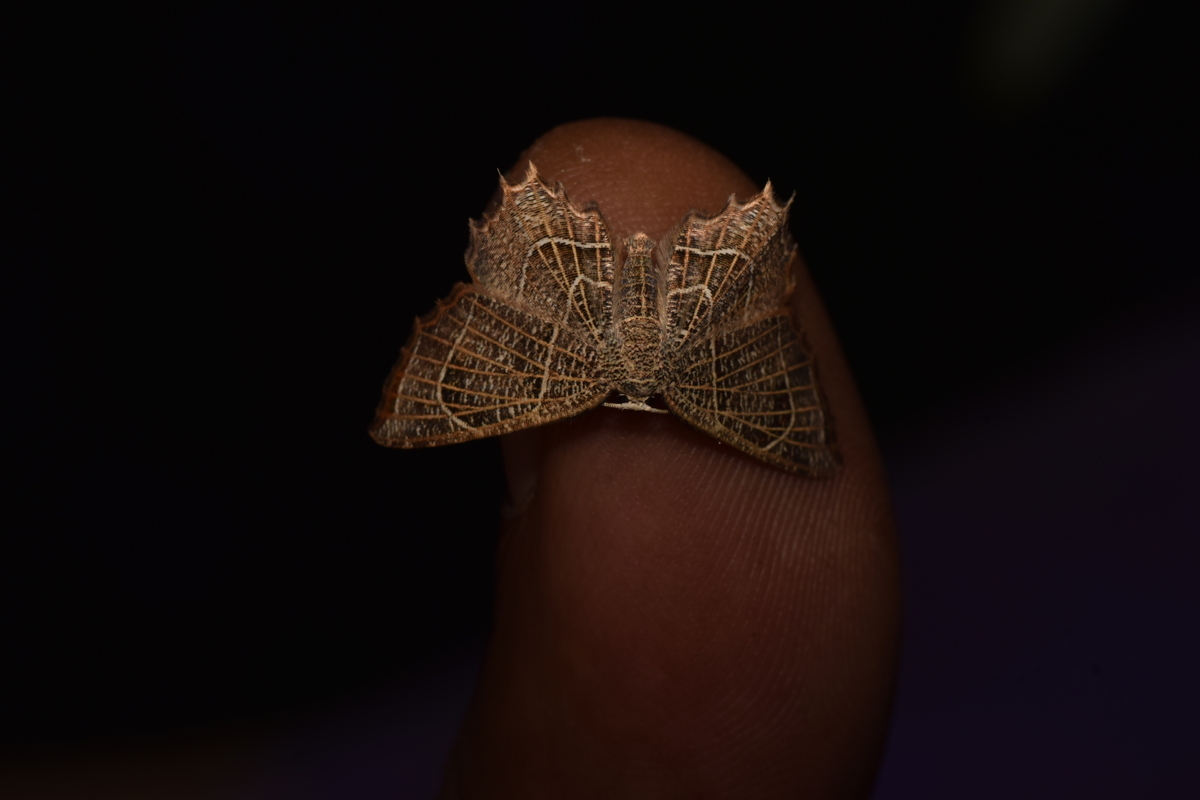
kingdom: Animalia
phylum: Arthropoda
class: Insecta
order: Lepidoptera
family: Uraniidae
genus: Epiplema
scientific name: Epiplema
